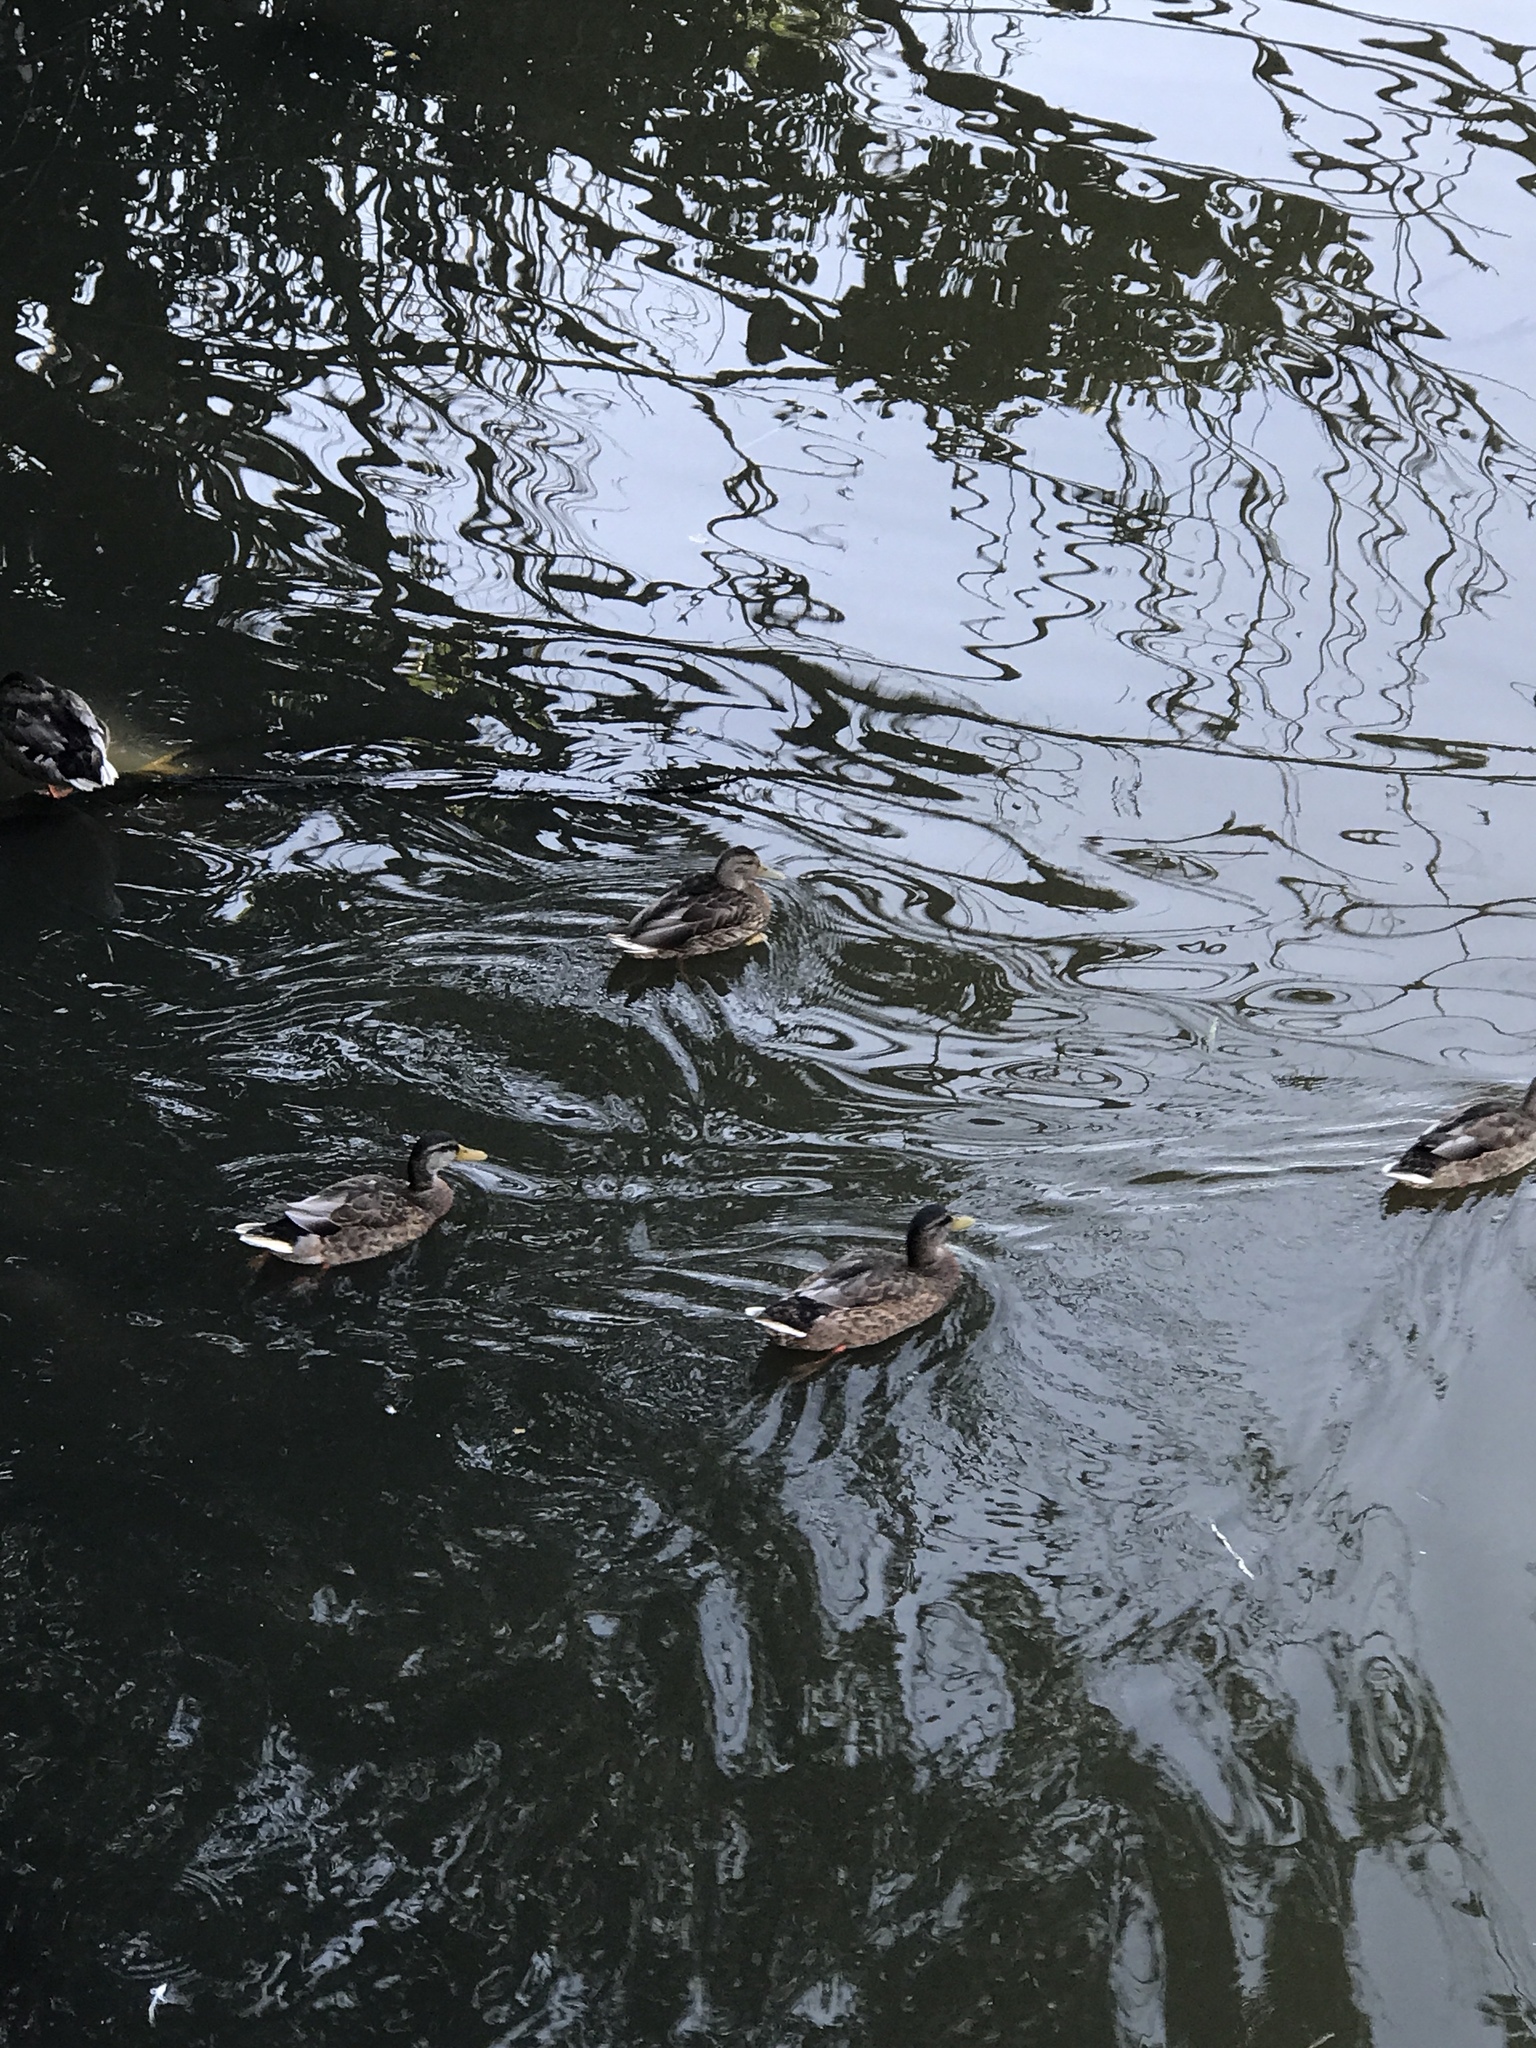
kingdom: Animalia
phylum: Chordata
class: Aves
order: Anseriformes
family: Anatidae
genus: Anas
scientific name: Anas platyrhynchos
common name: Mallard
